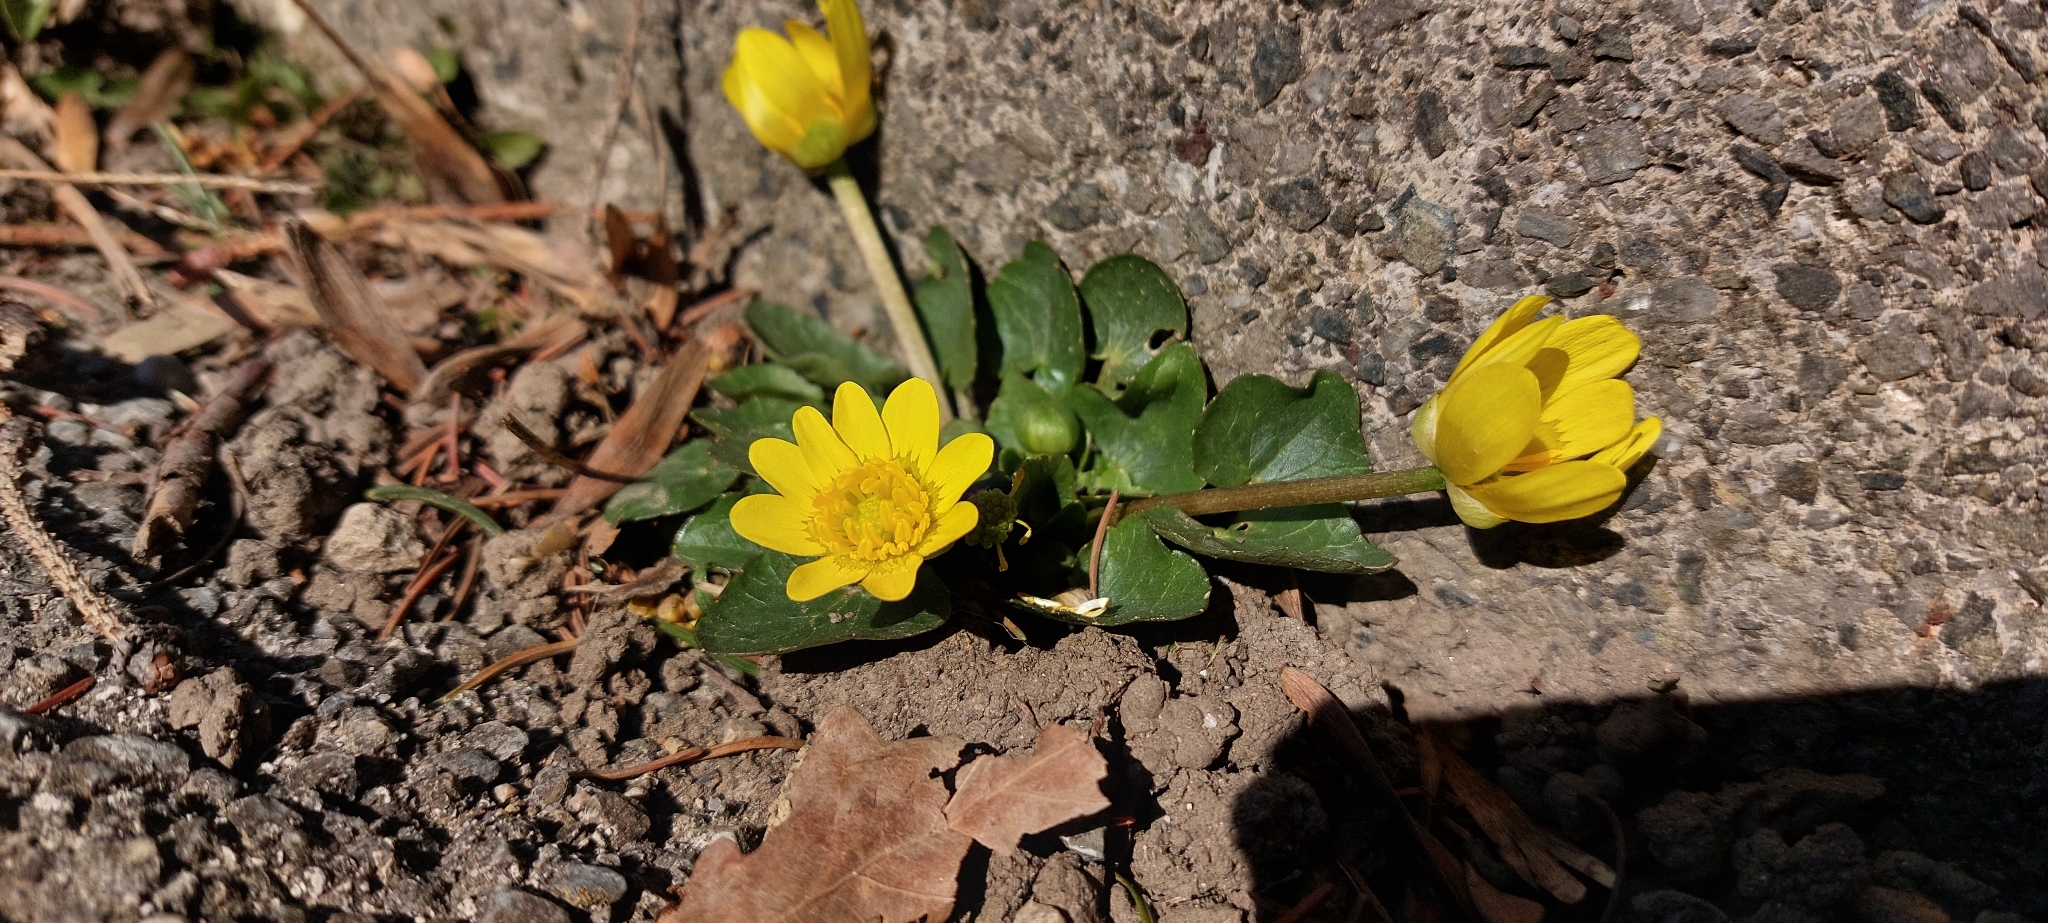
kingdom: Plantae
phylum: Tracheophyta
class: Magnoliopsida
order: Ranunculales
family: Ranunculaceae
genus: Ficaria
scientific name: Ficaria verna
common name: Lesser celandine
